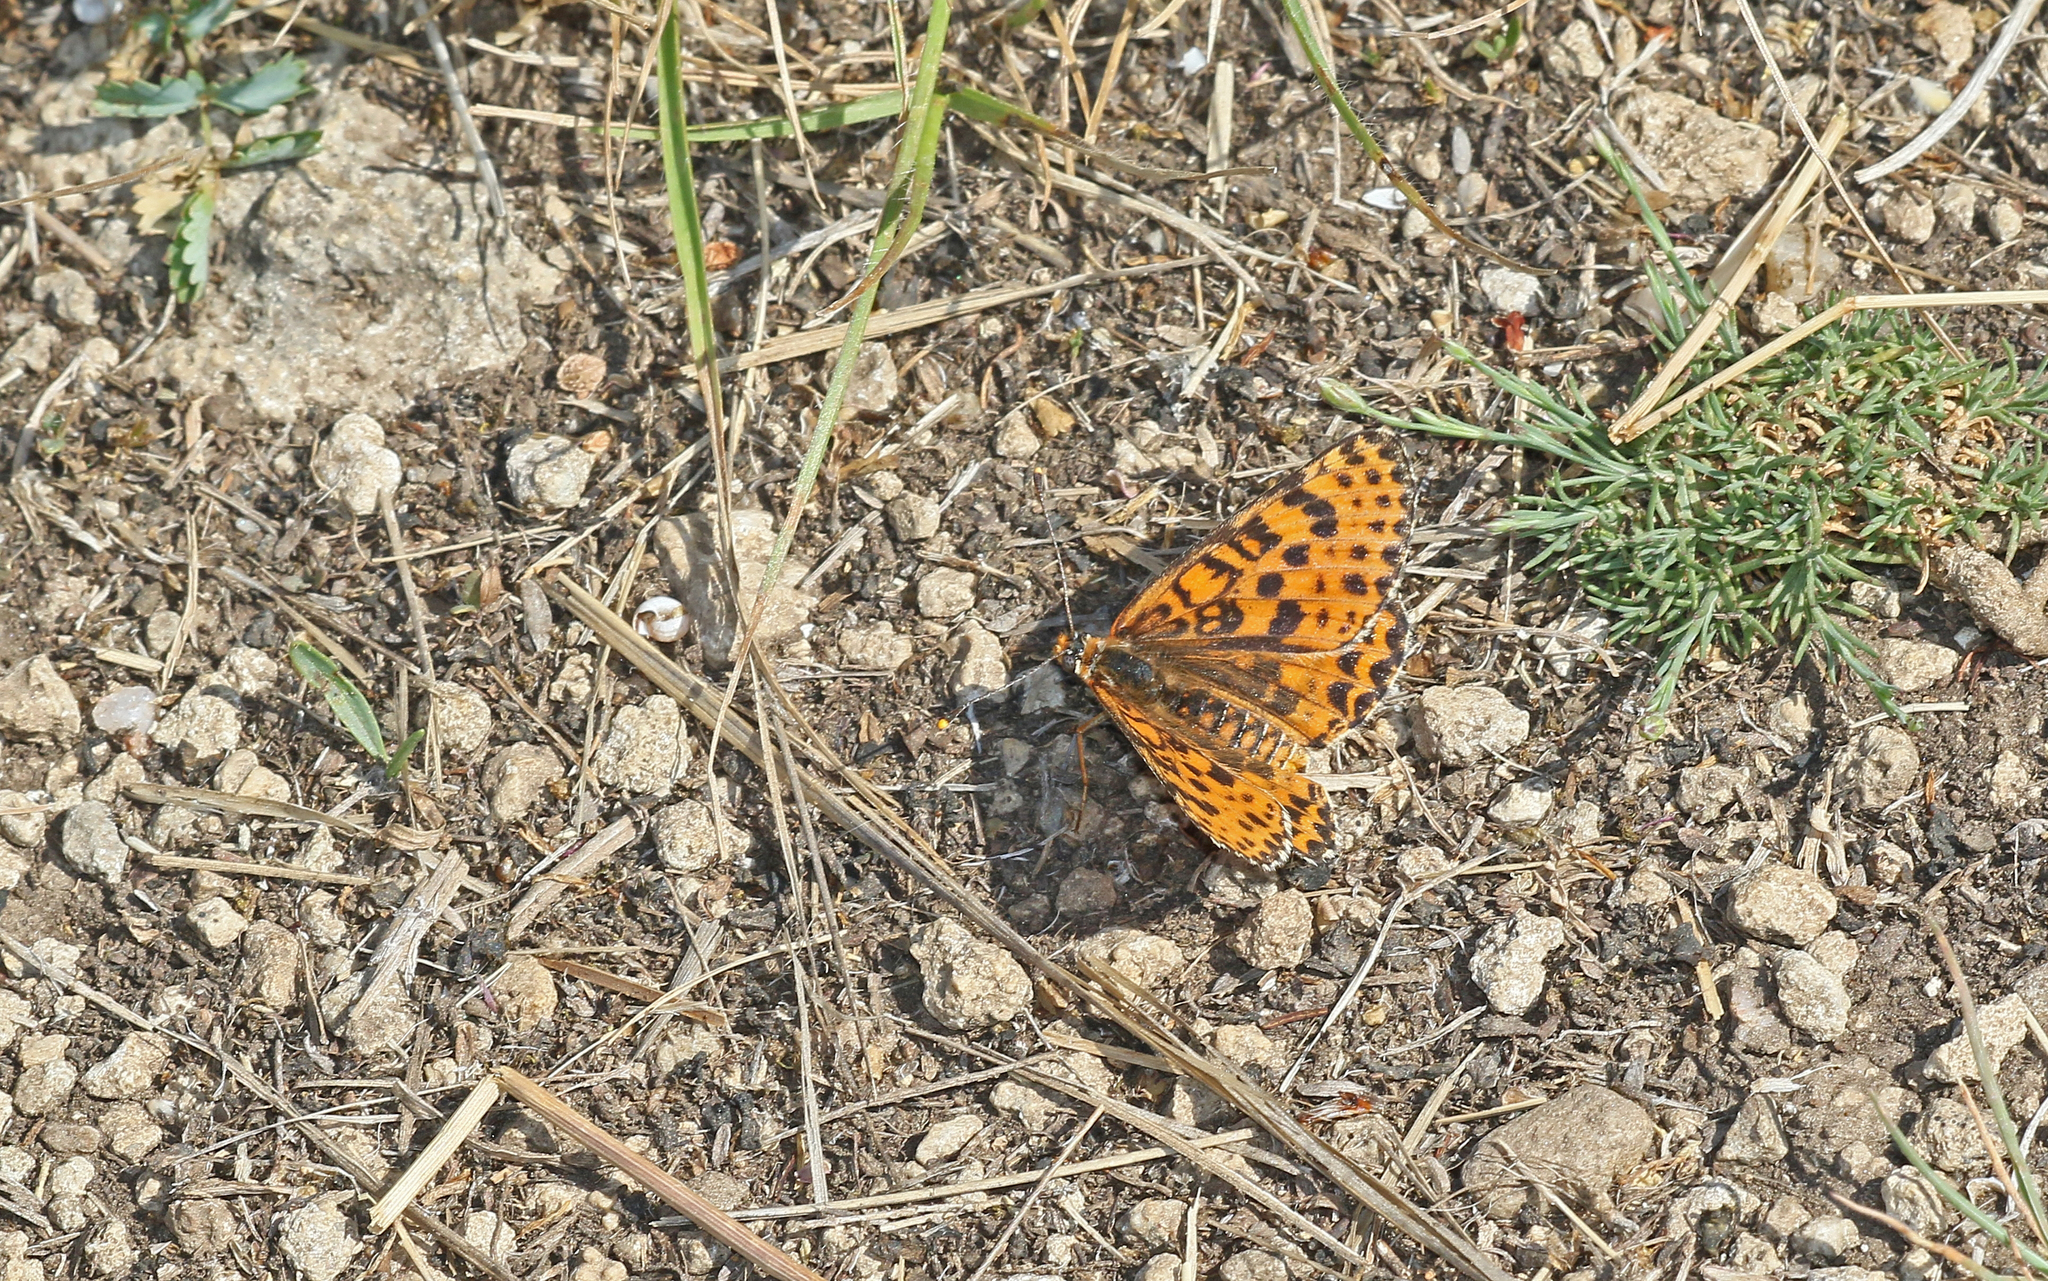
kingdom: Animalia
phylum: Arthropoda
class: Insecta
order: Lepidoptera
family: Nymphalidae
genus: Melitaea
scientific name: Melitaea didyma
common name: Spotted fritillary
